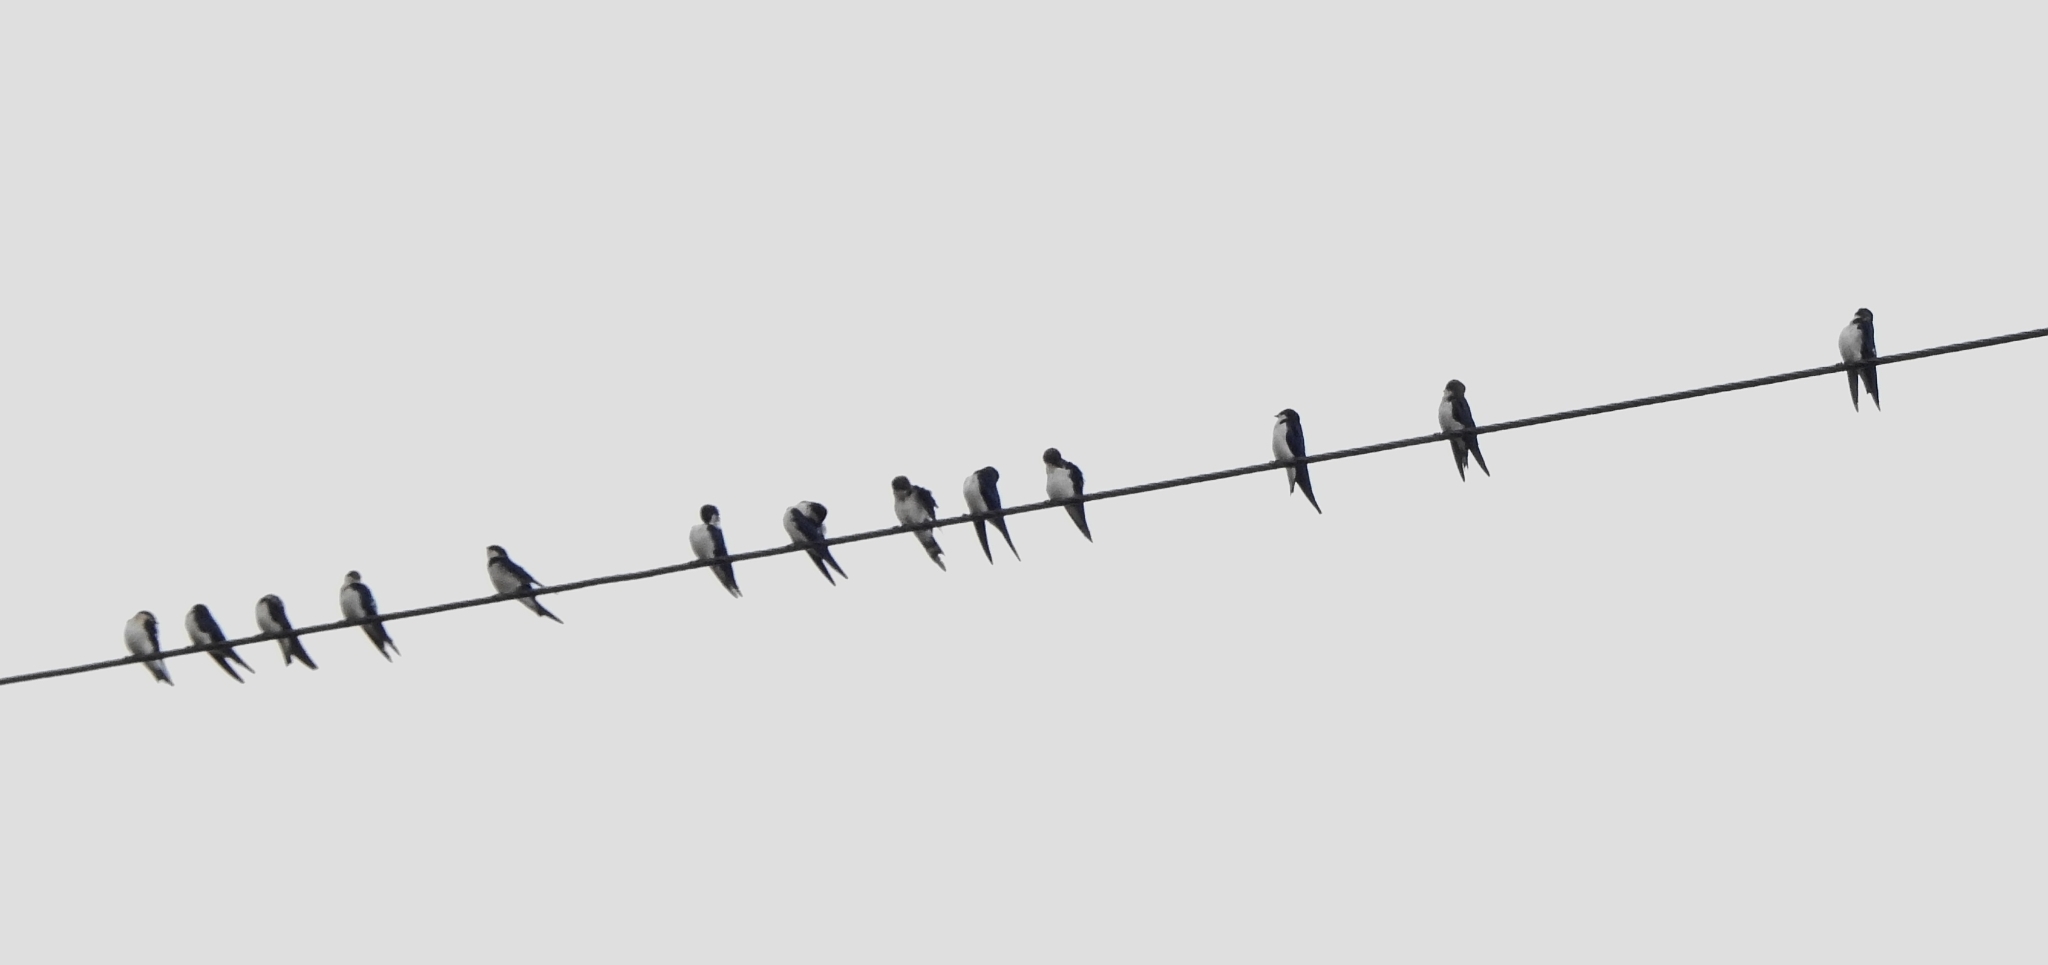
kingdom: Animalia
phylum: Chordata
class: Aves
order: Passeriformes
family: Hirundinidae
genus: Hirundo
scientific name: Hirundo smithii
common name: Wire-tailed swallow
